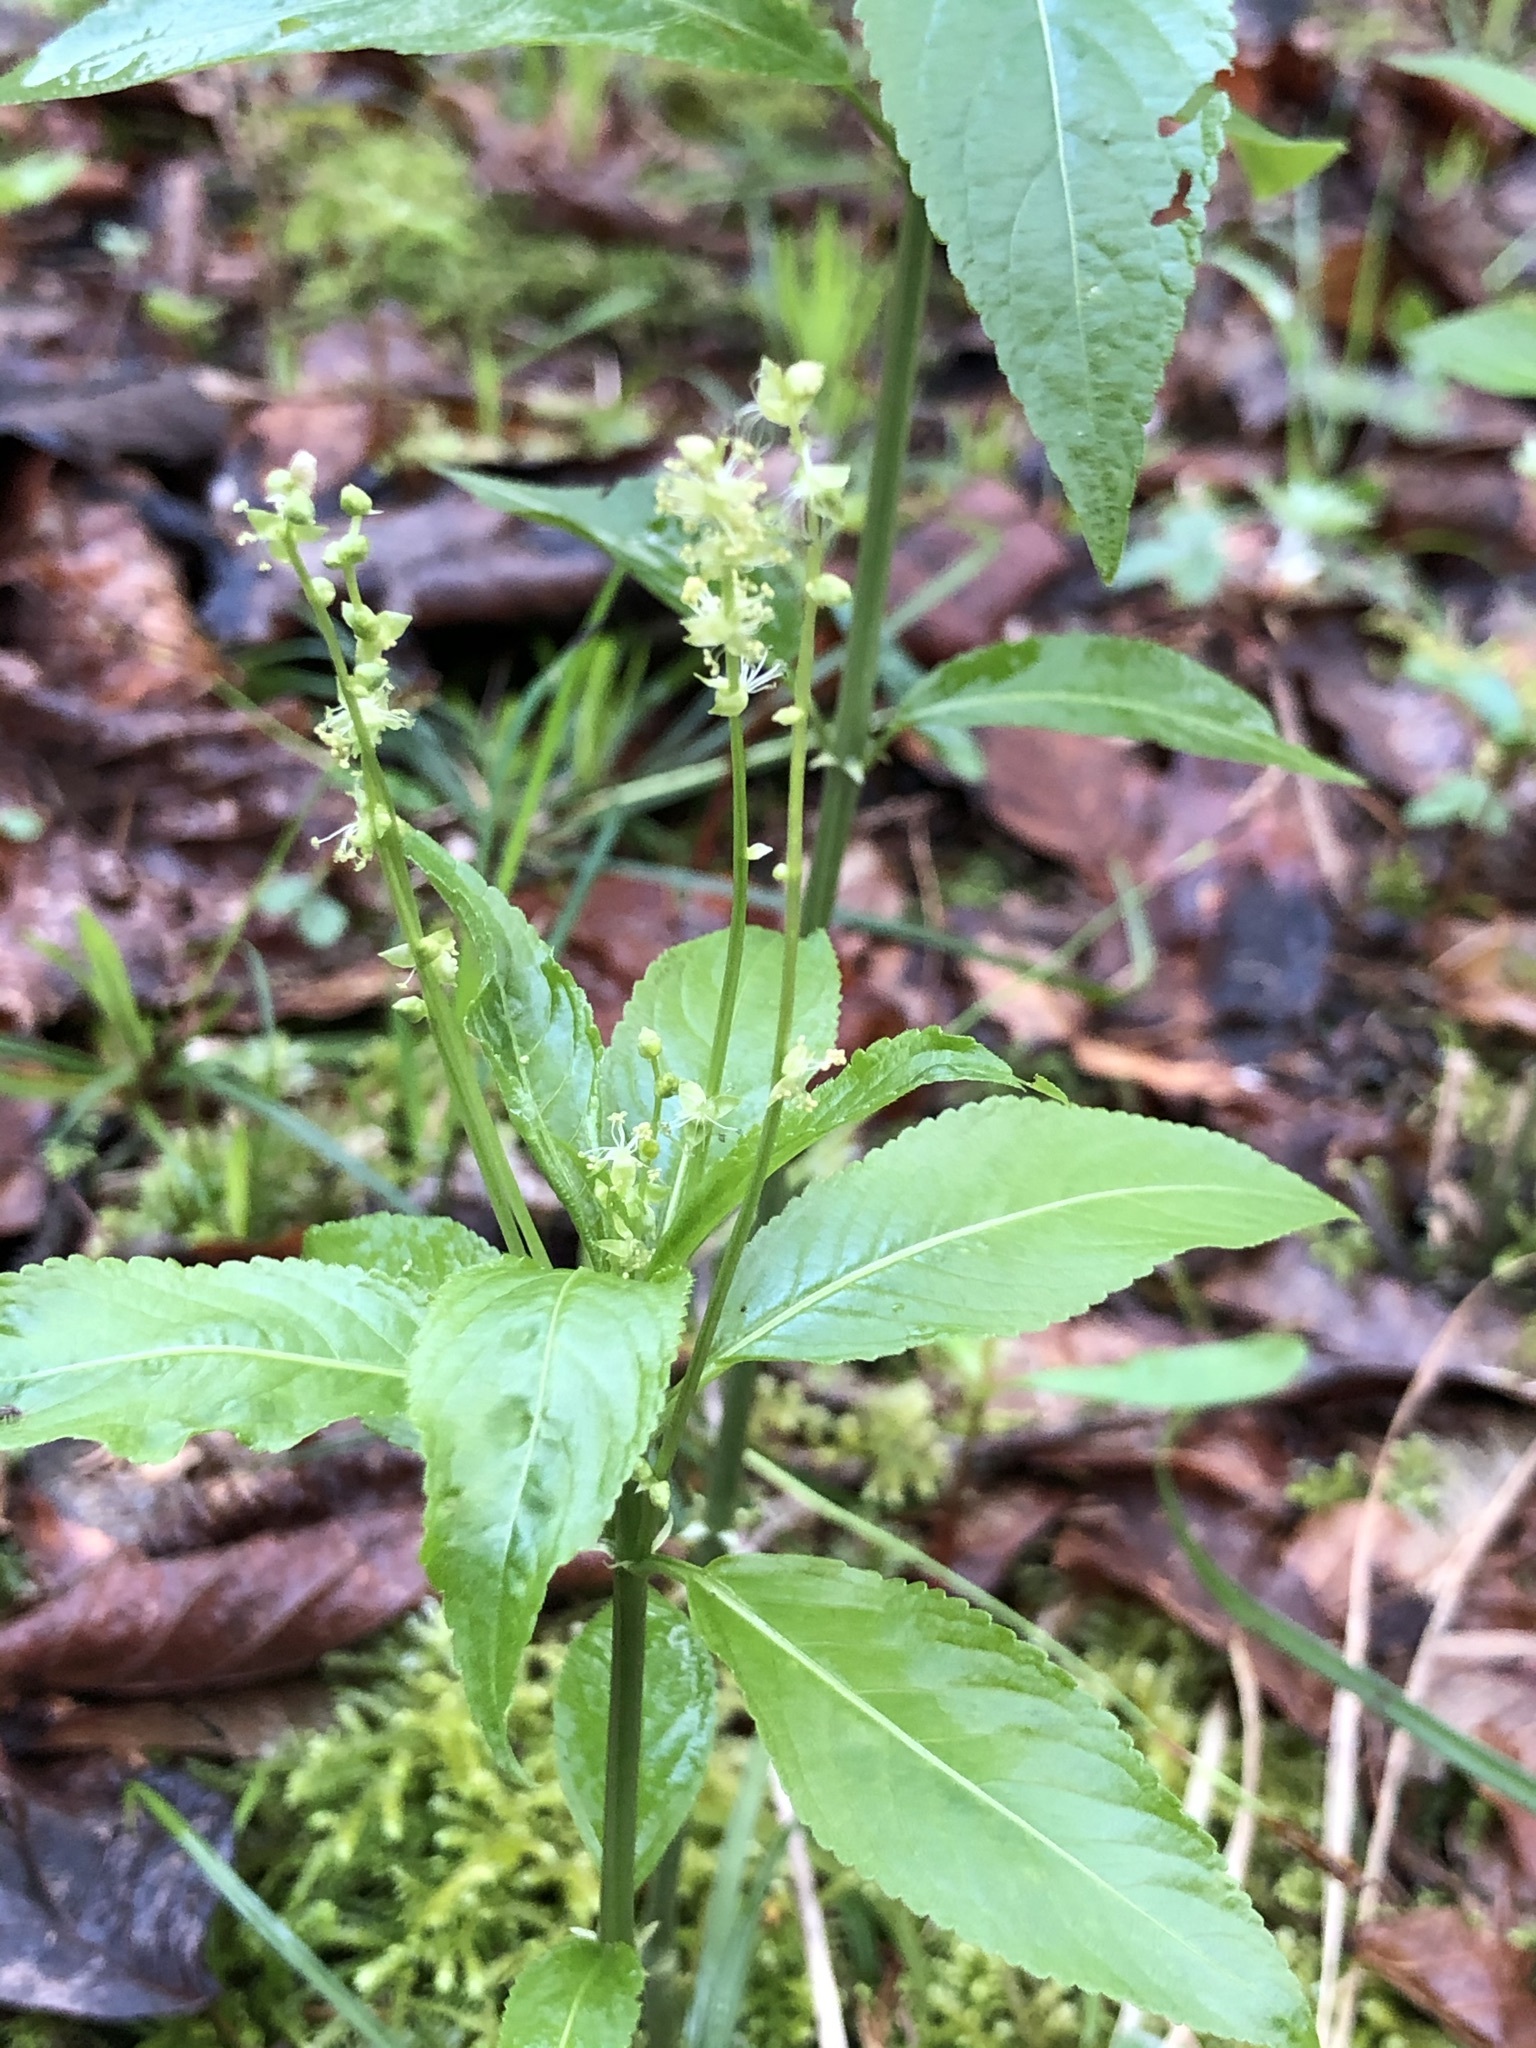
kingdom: Plantae
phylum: Tracheophyta
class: Magnoliopsida
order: Malpighiales
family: Euphorbiaceae
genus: Mercurialis
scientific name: Mercurialis perennis
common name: Dog mercury
